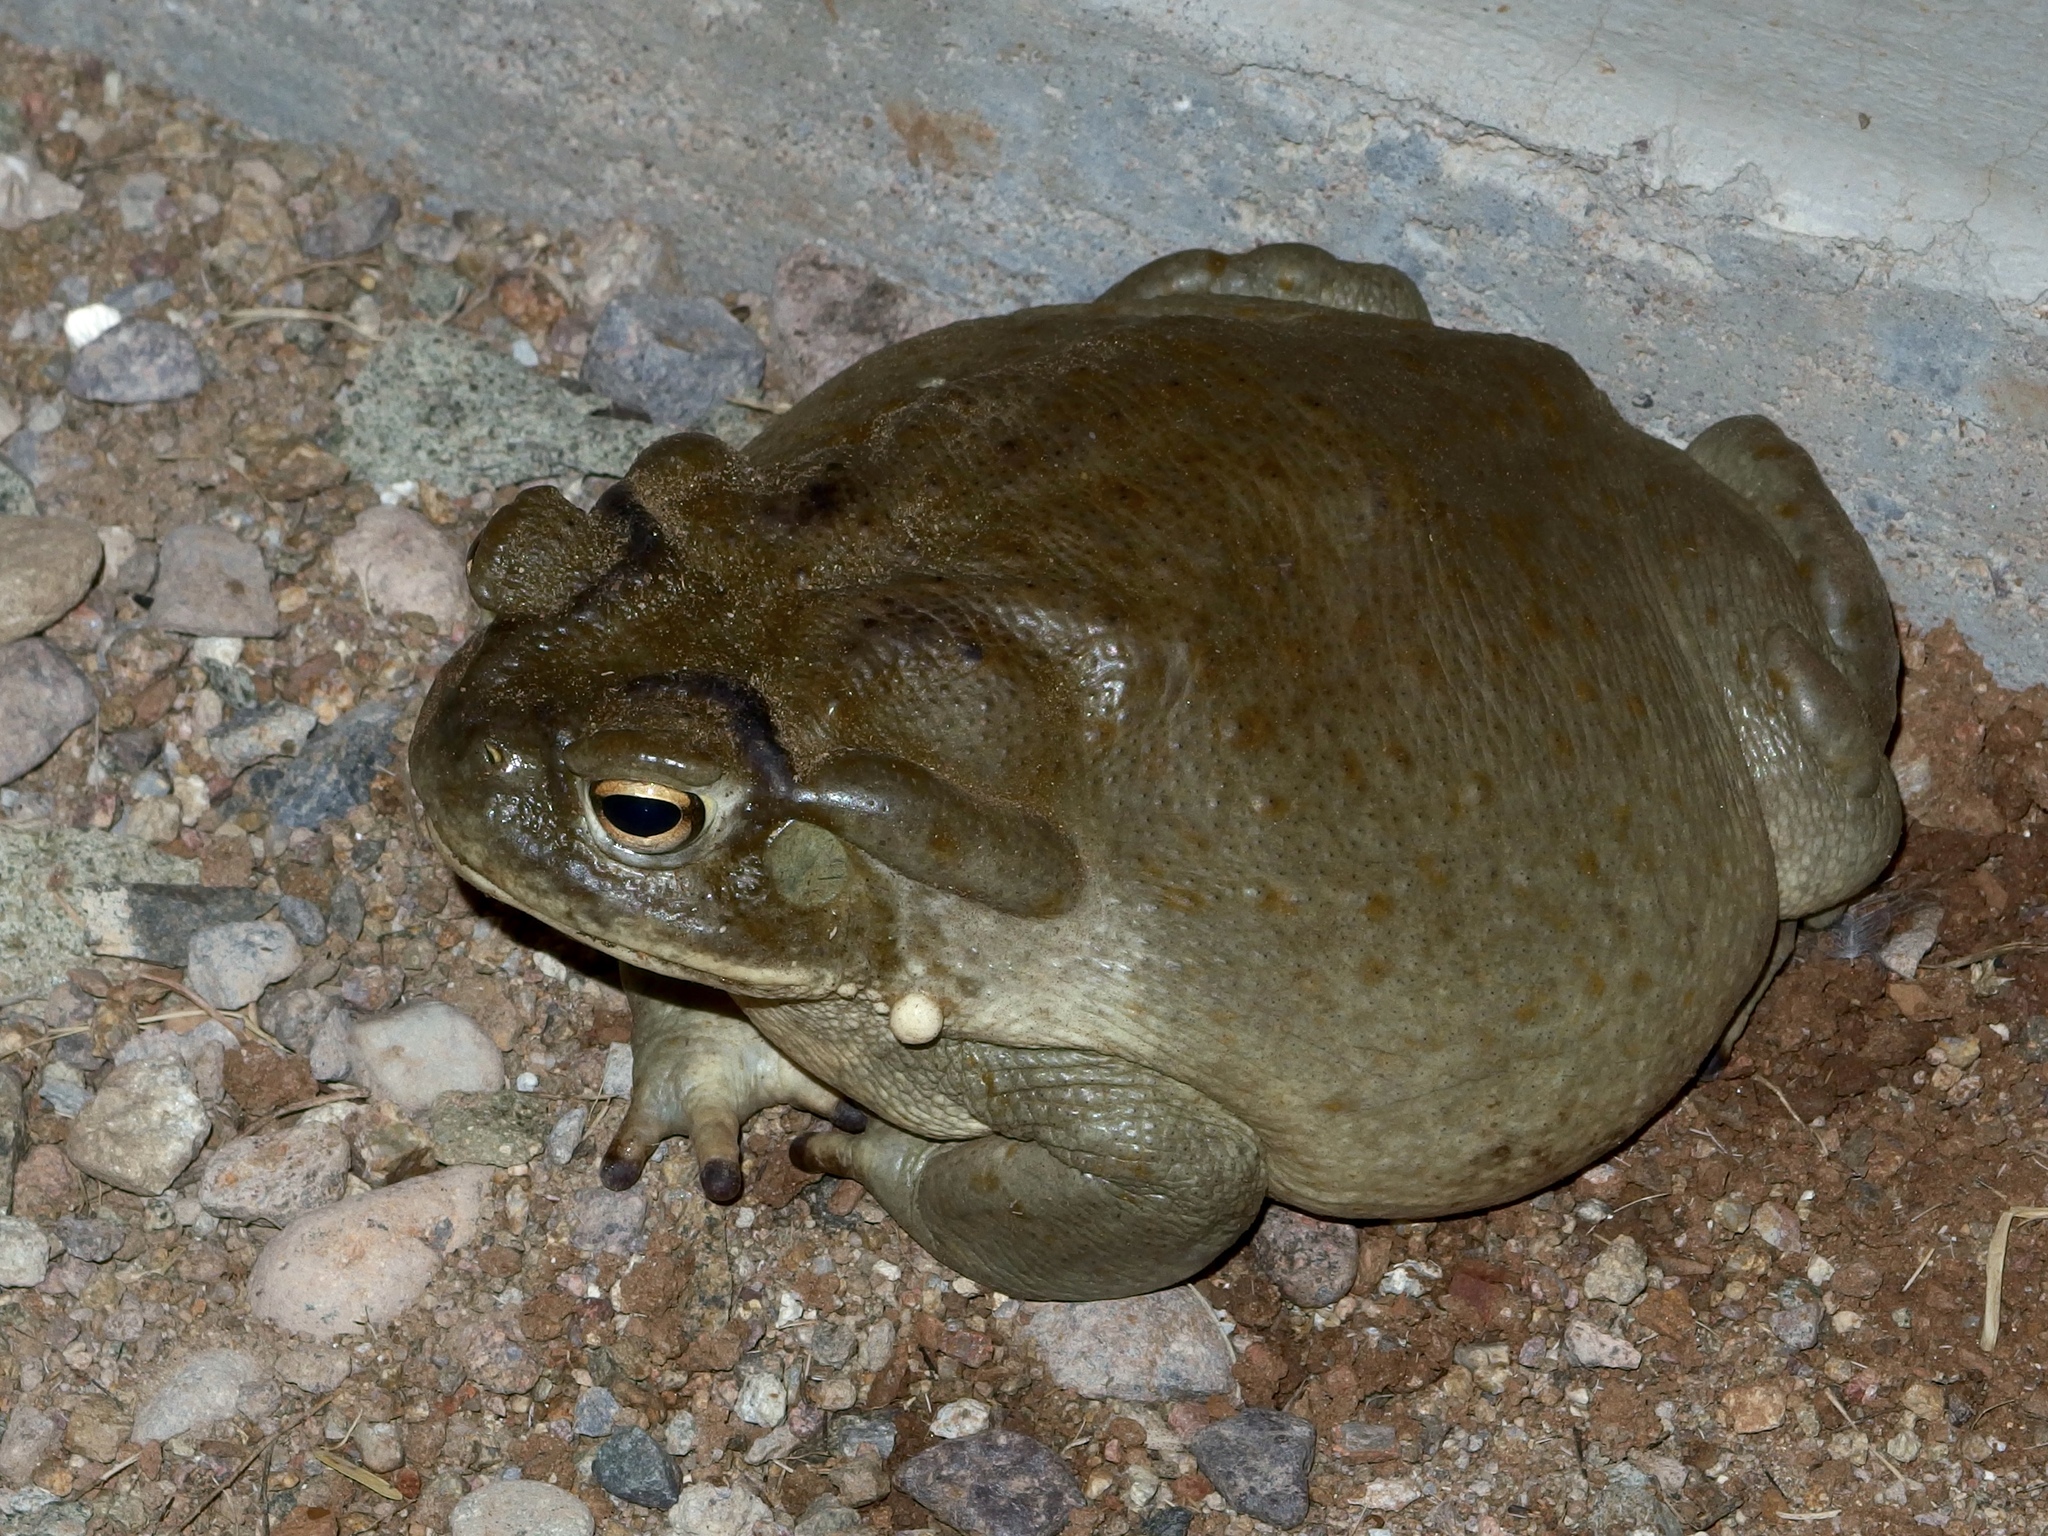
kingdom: Animalia
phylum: Chordata
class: Amphibia
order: Anura
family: Bufonidae
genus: Incilius
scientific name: Incilius alvarius
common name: Sonoran desert toad
